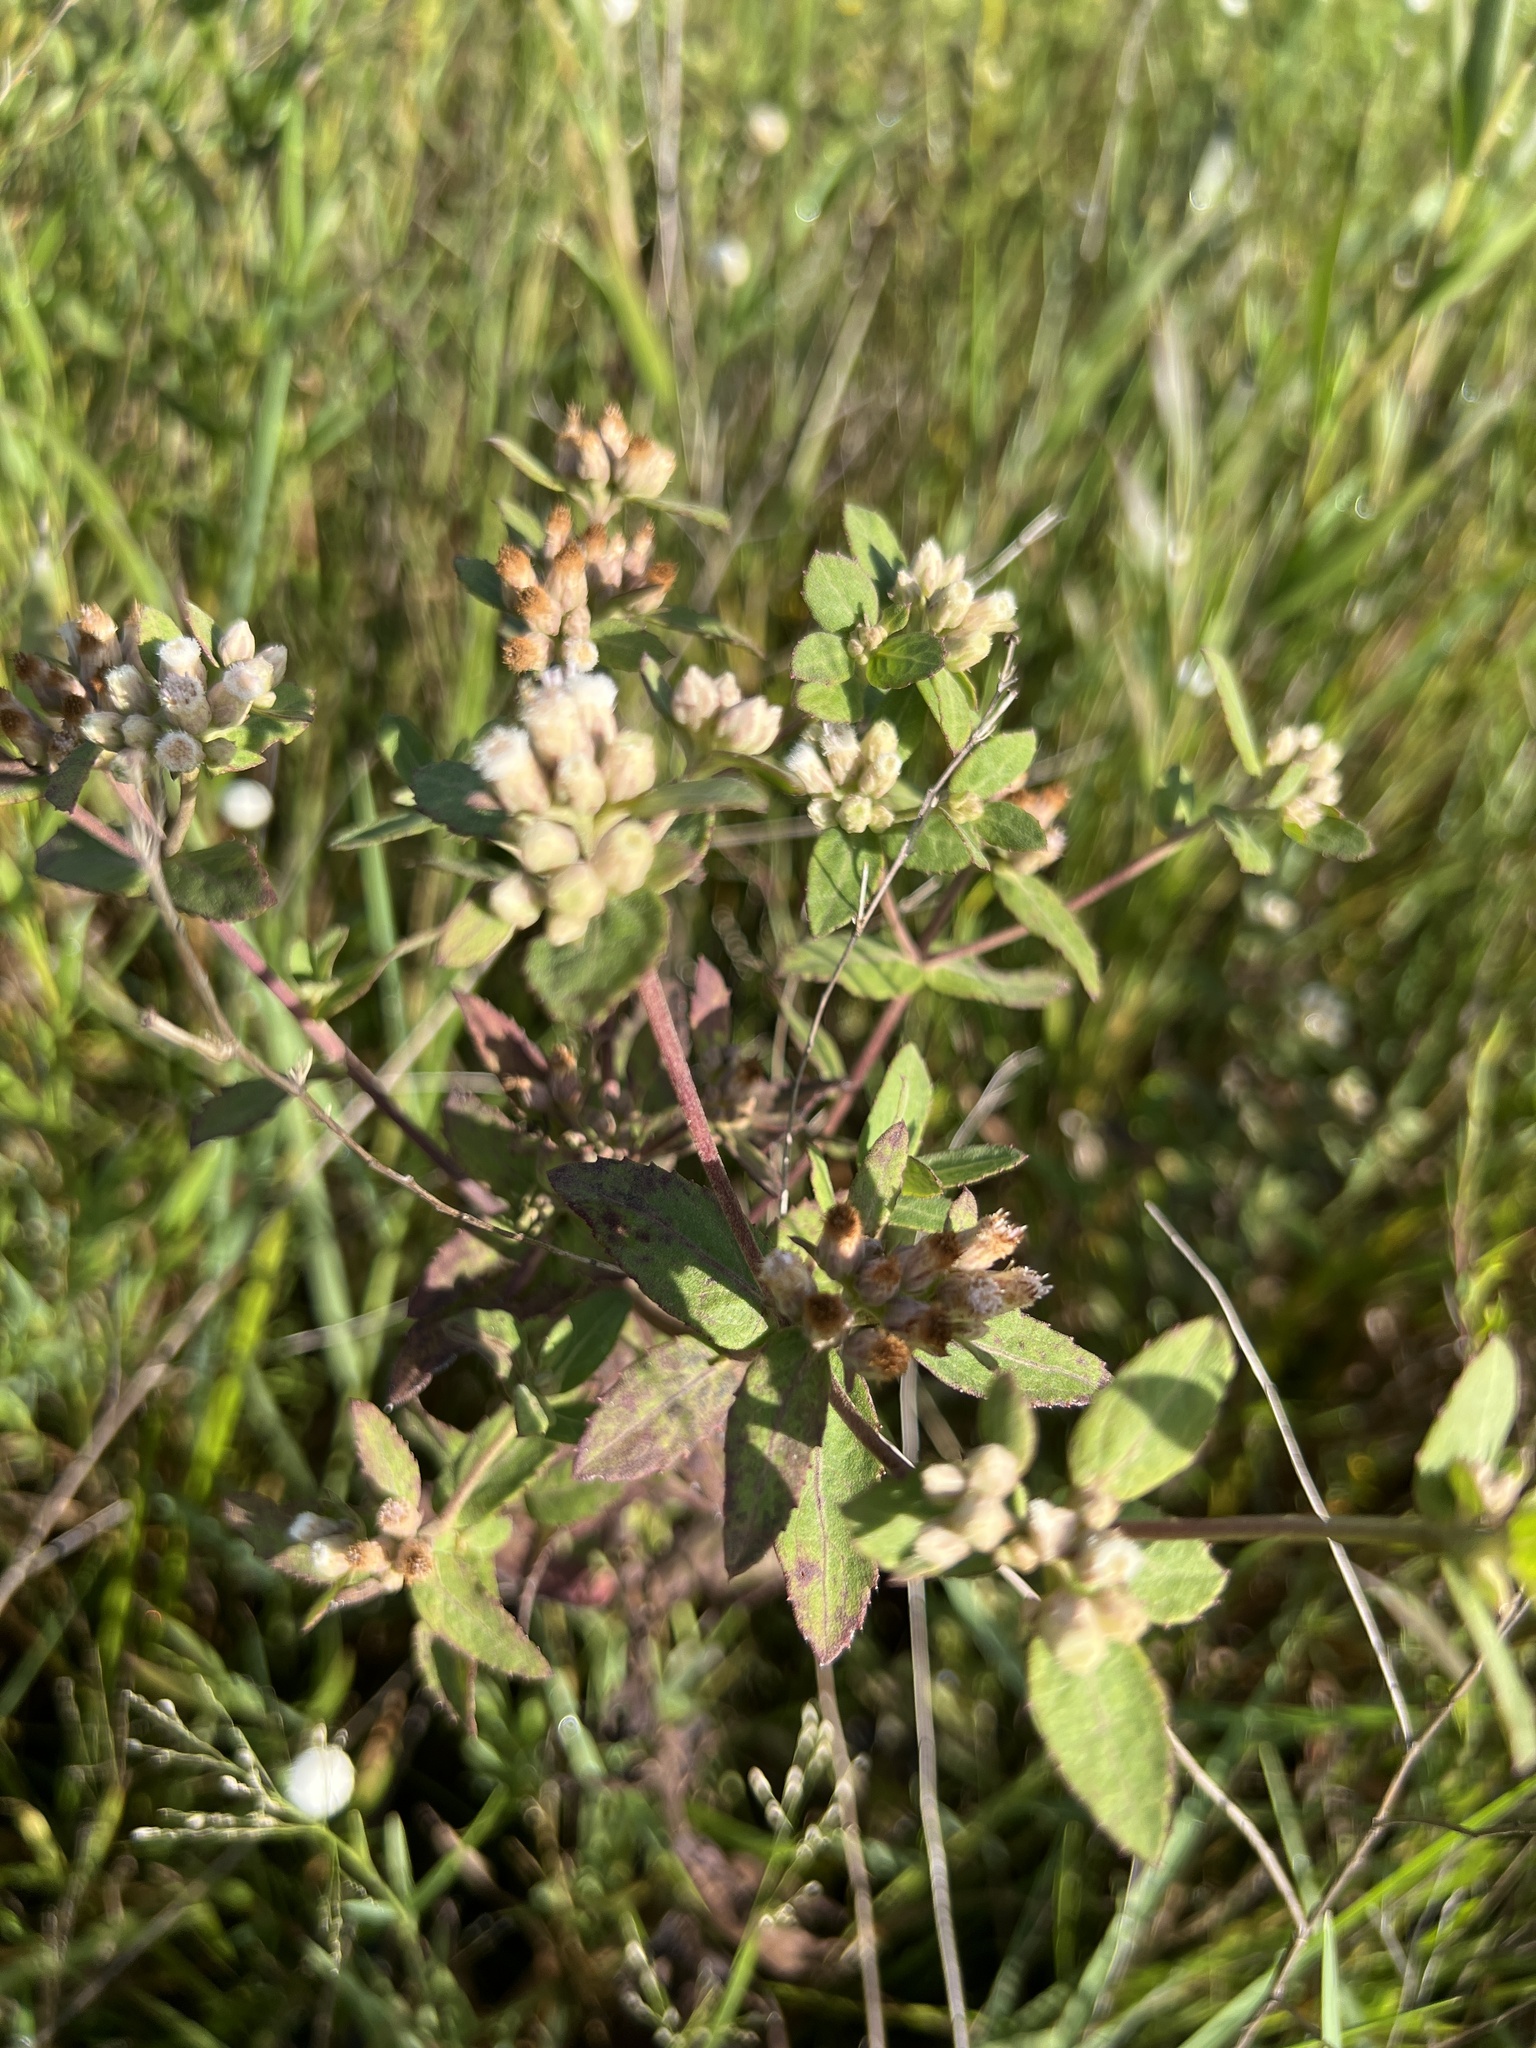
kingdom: Plantae
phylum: Tracheophyta
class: Magnoliopsida
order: Asterales
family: Asteraceae
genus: Pluchea
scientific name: Pluchea foetida
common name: Stinking camphorweed
